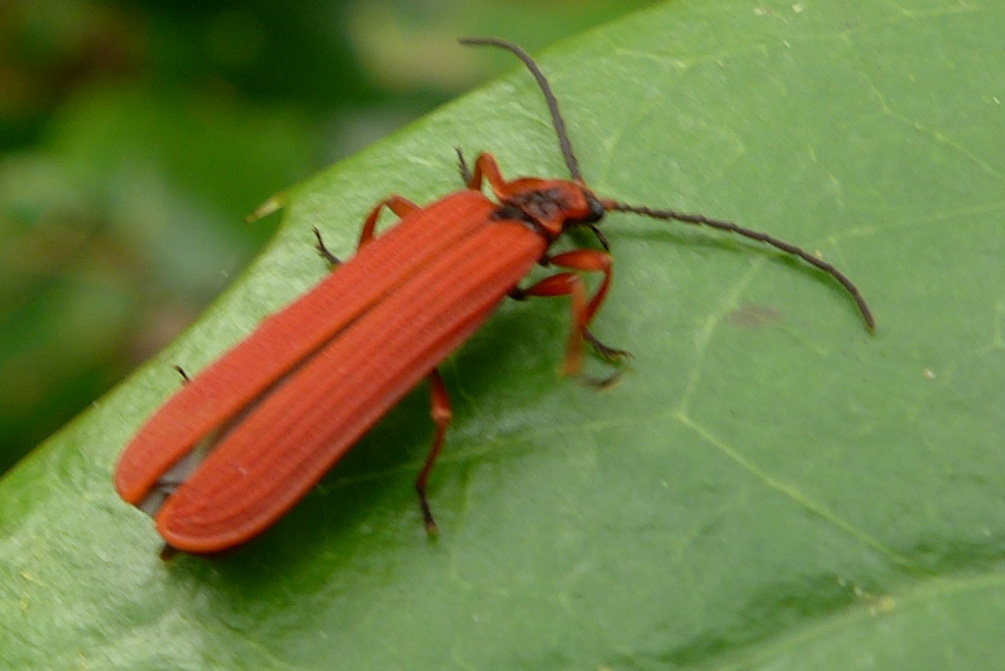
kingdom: Animalia
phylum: Arthropoda
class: Insecta
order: Coleoptera
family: Lycidae
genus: Dictyoptera
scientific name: Dictyoptera simplicipes
